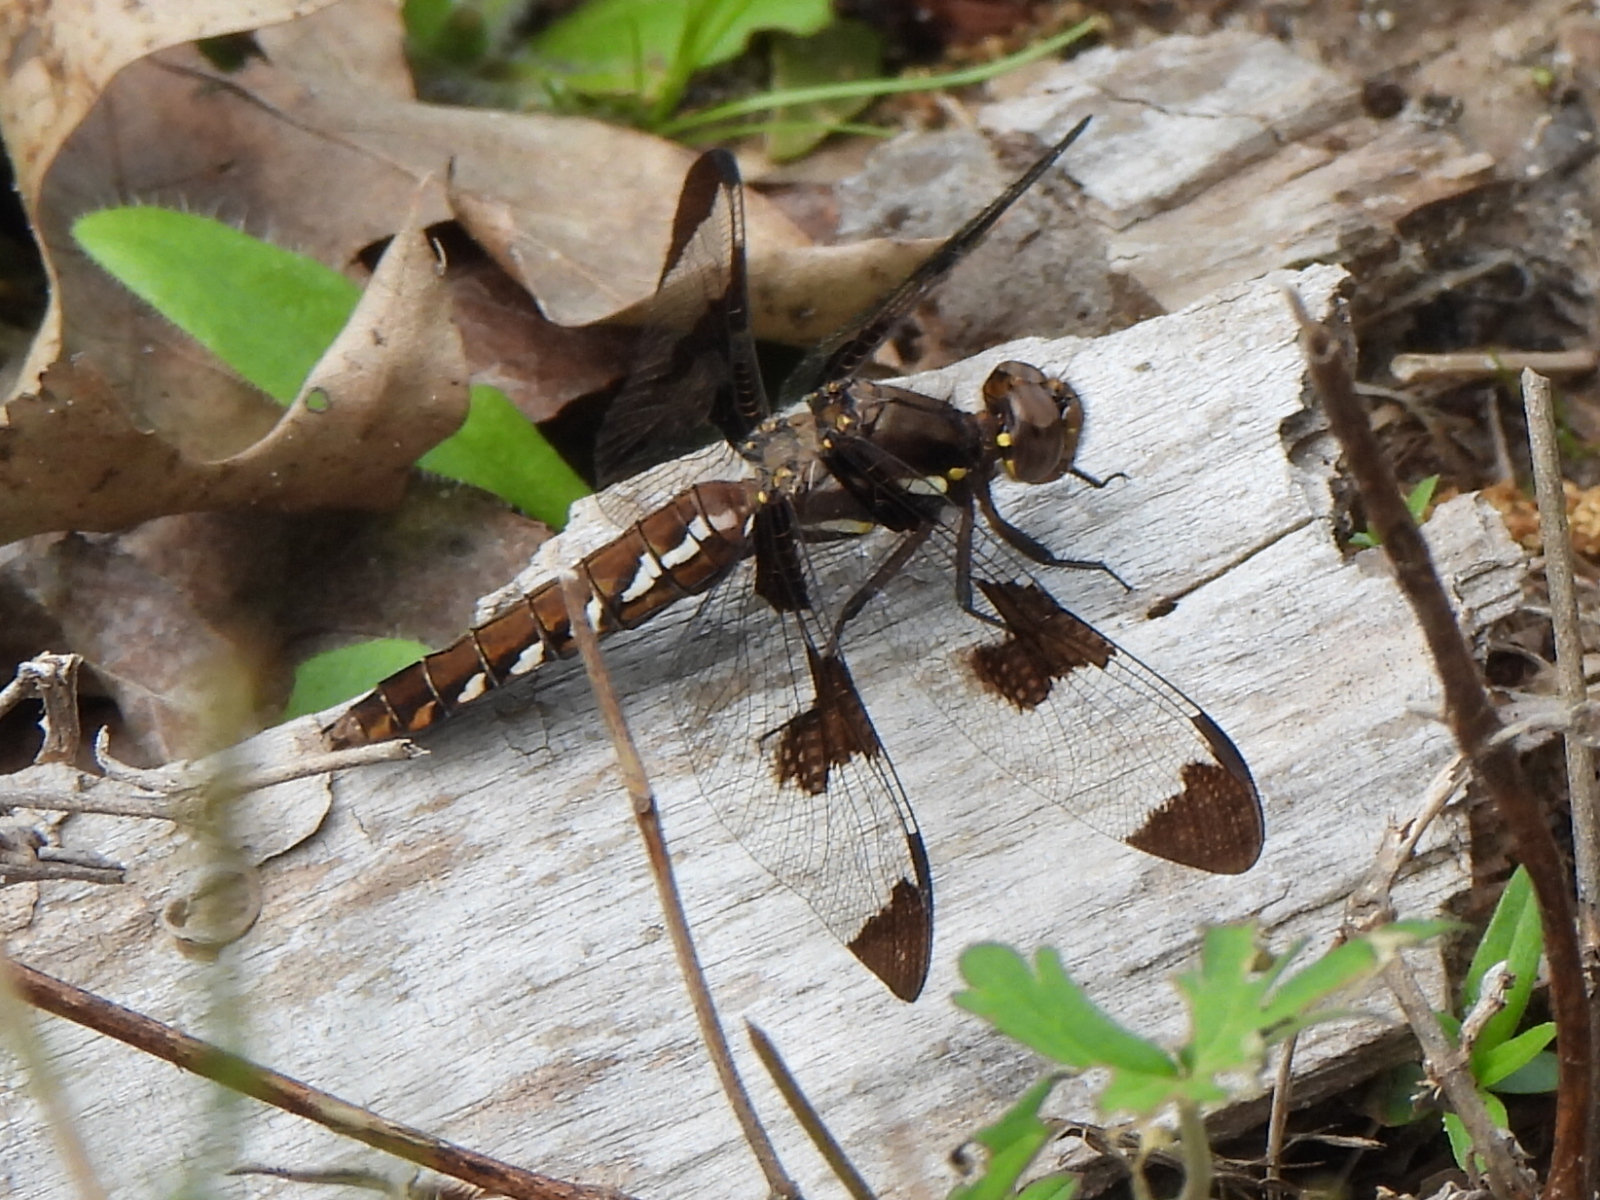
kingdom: Animalia
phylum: Arthropoda
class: Insecta
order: Odonata
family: Libellulidae
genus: Plathemis
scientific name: Plathemis lydia
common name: Common whitetail
